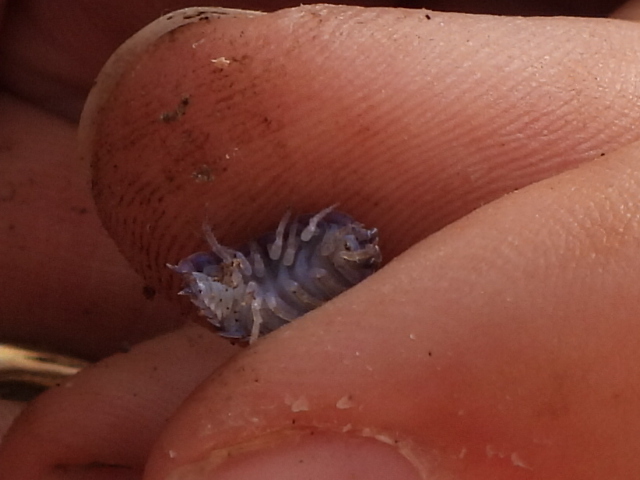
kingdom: Viruses
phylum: Nucleocytoviricota
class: Megaviricetes
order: Pimascovirales
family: Iridoviridae
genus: Iridovirus
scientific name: Iridovirus Invertebrate iridescent virus 31
